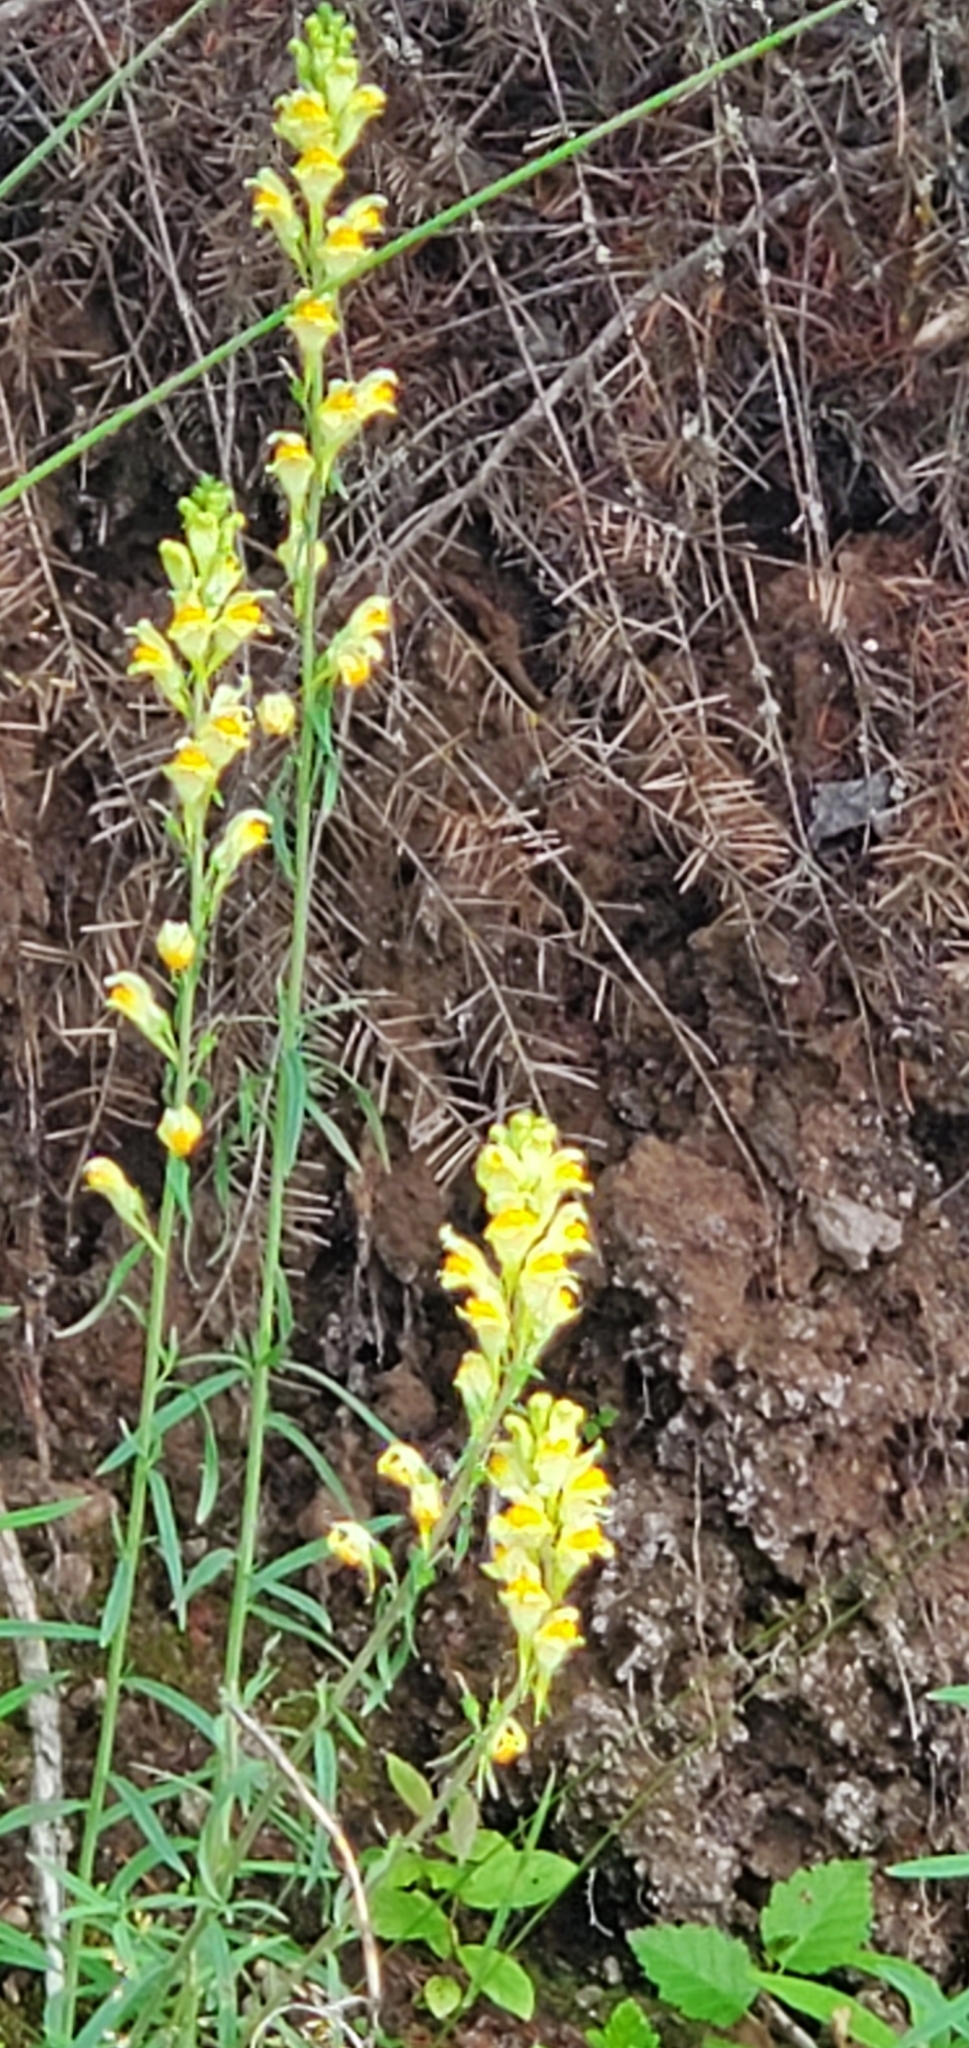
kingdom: Plantae
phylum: Tracheophyta
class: Magnoliopsida
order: Lamiales
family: Plantaginaceae
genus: Linaria
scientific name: Linaria vulgaris
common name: Butter and eggs
